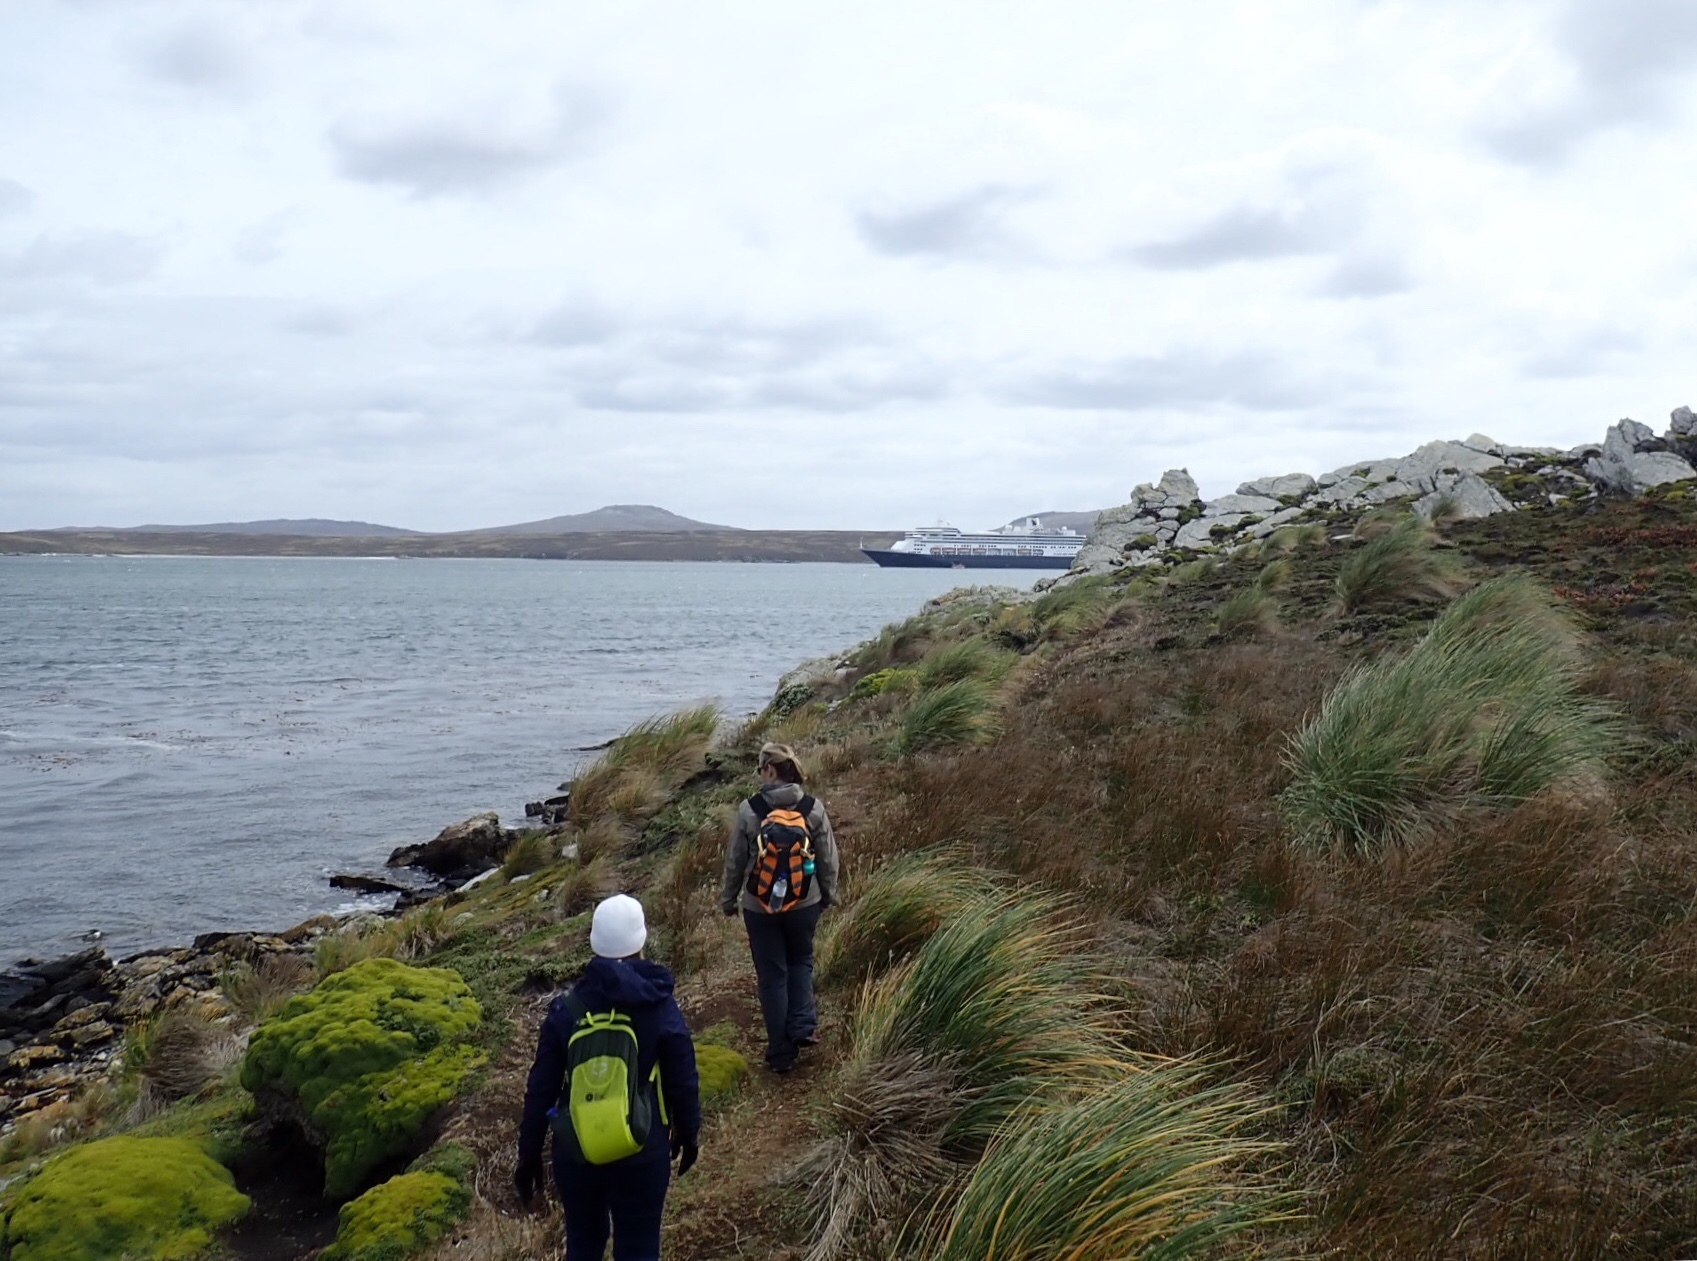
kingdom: Plantae
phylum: Tracheophyta
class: Liliopsida
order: Poales
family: Poaceae
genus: Poa
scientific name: Poa flabellata
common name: Tussac-grass
